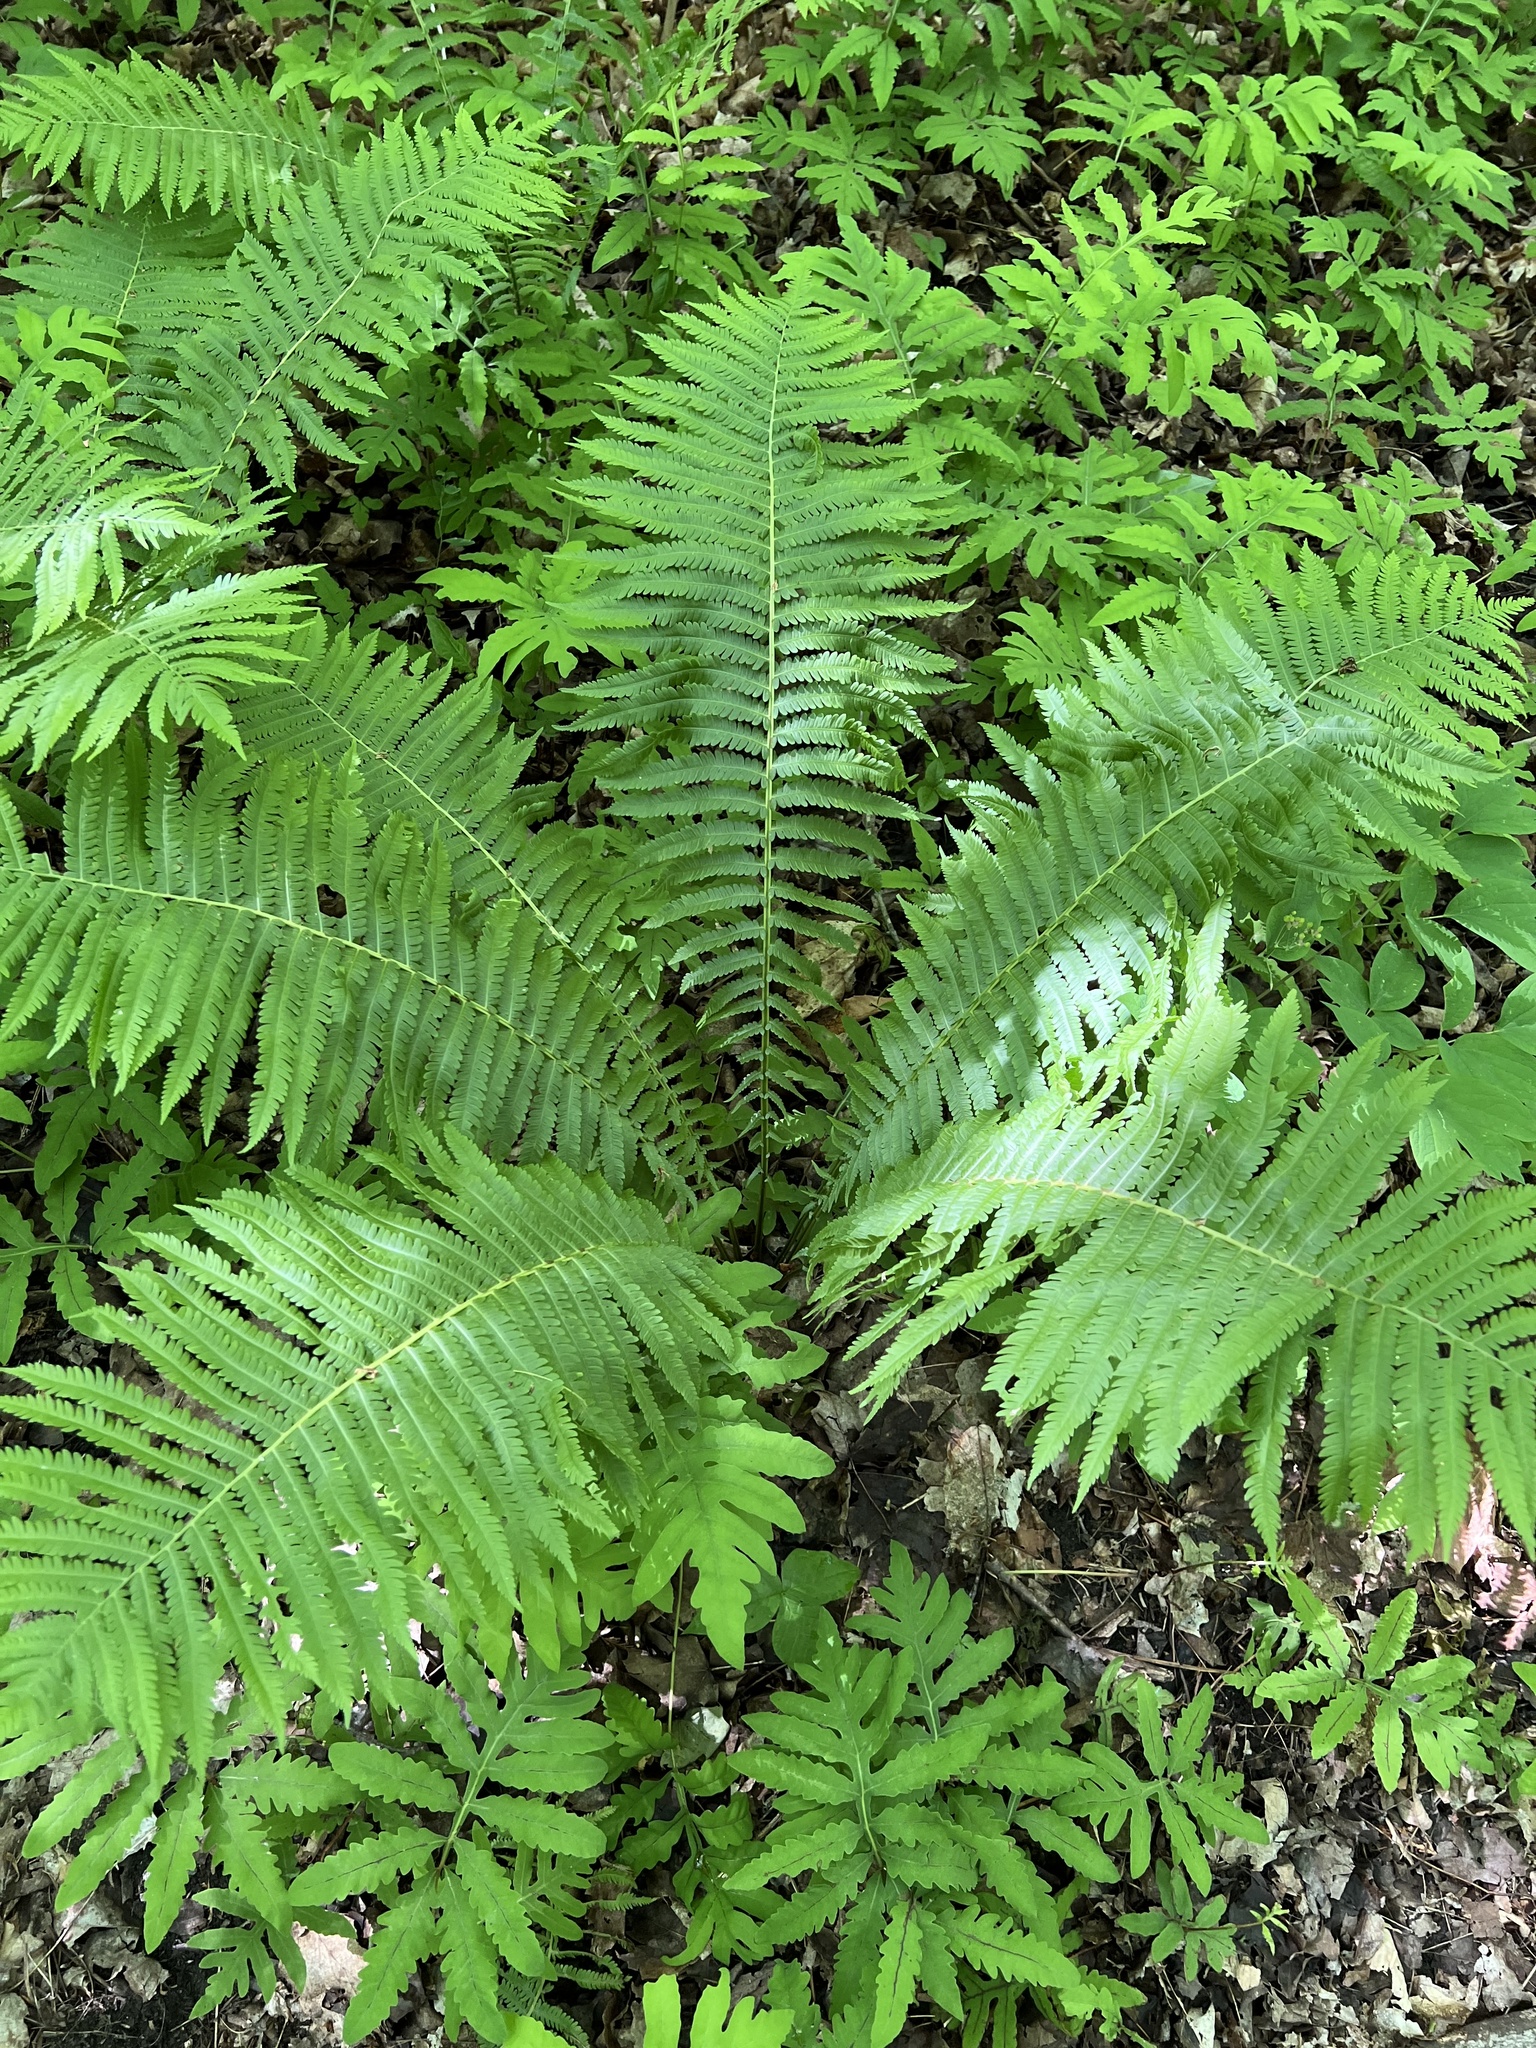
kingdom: Plantae
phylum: Tracheophyta
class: Polypodiopsida
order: Polypodiales
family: Onocleaceae
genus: Matteuccia
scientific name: Matteuccia struthiopteris
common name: Ostrich fern
